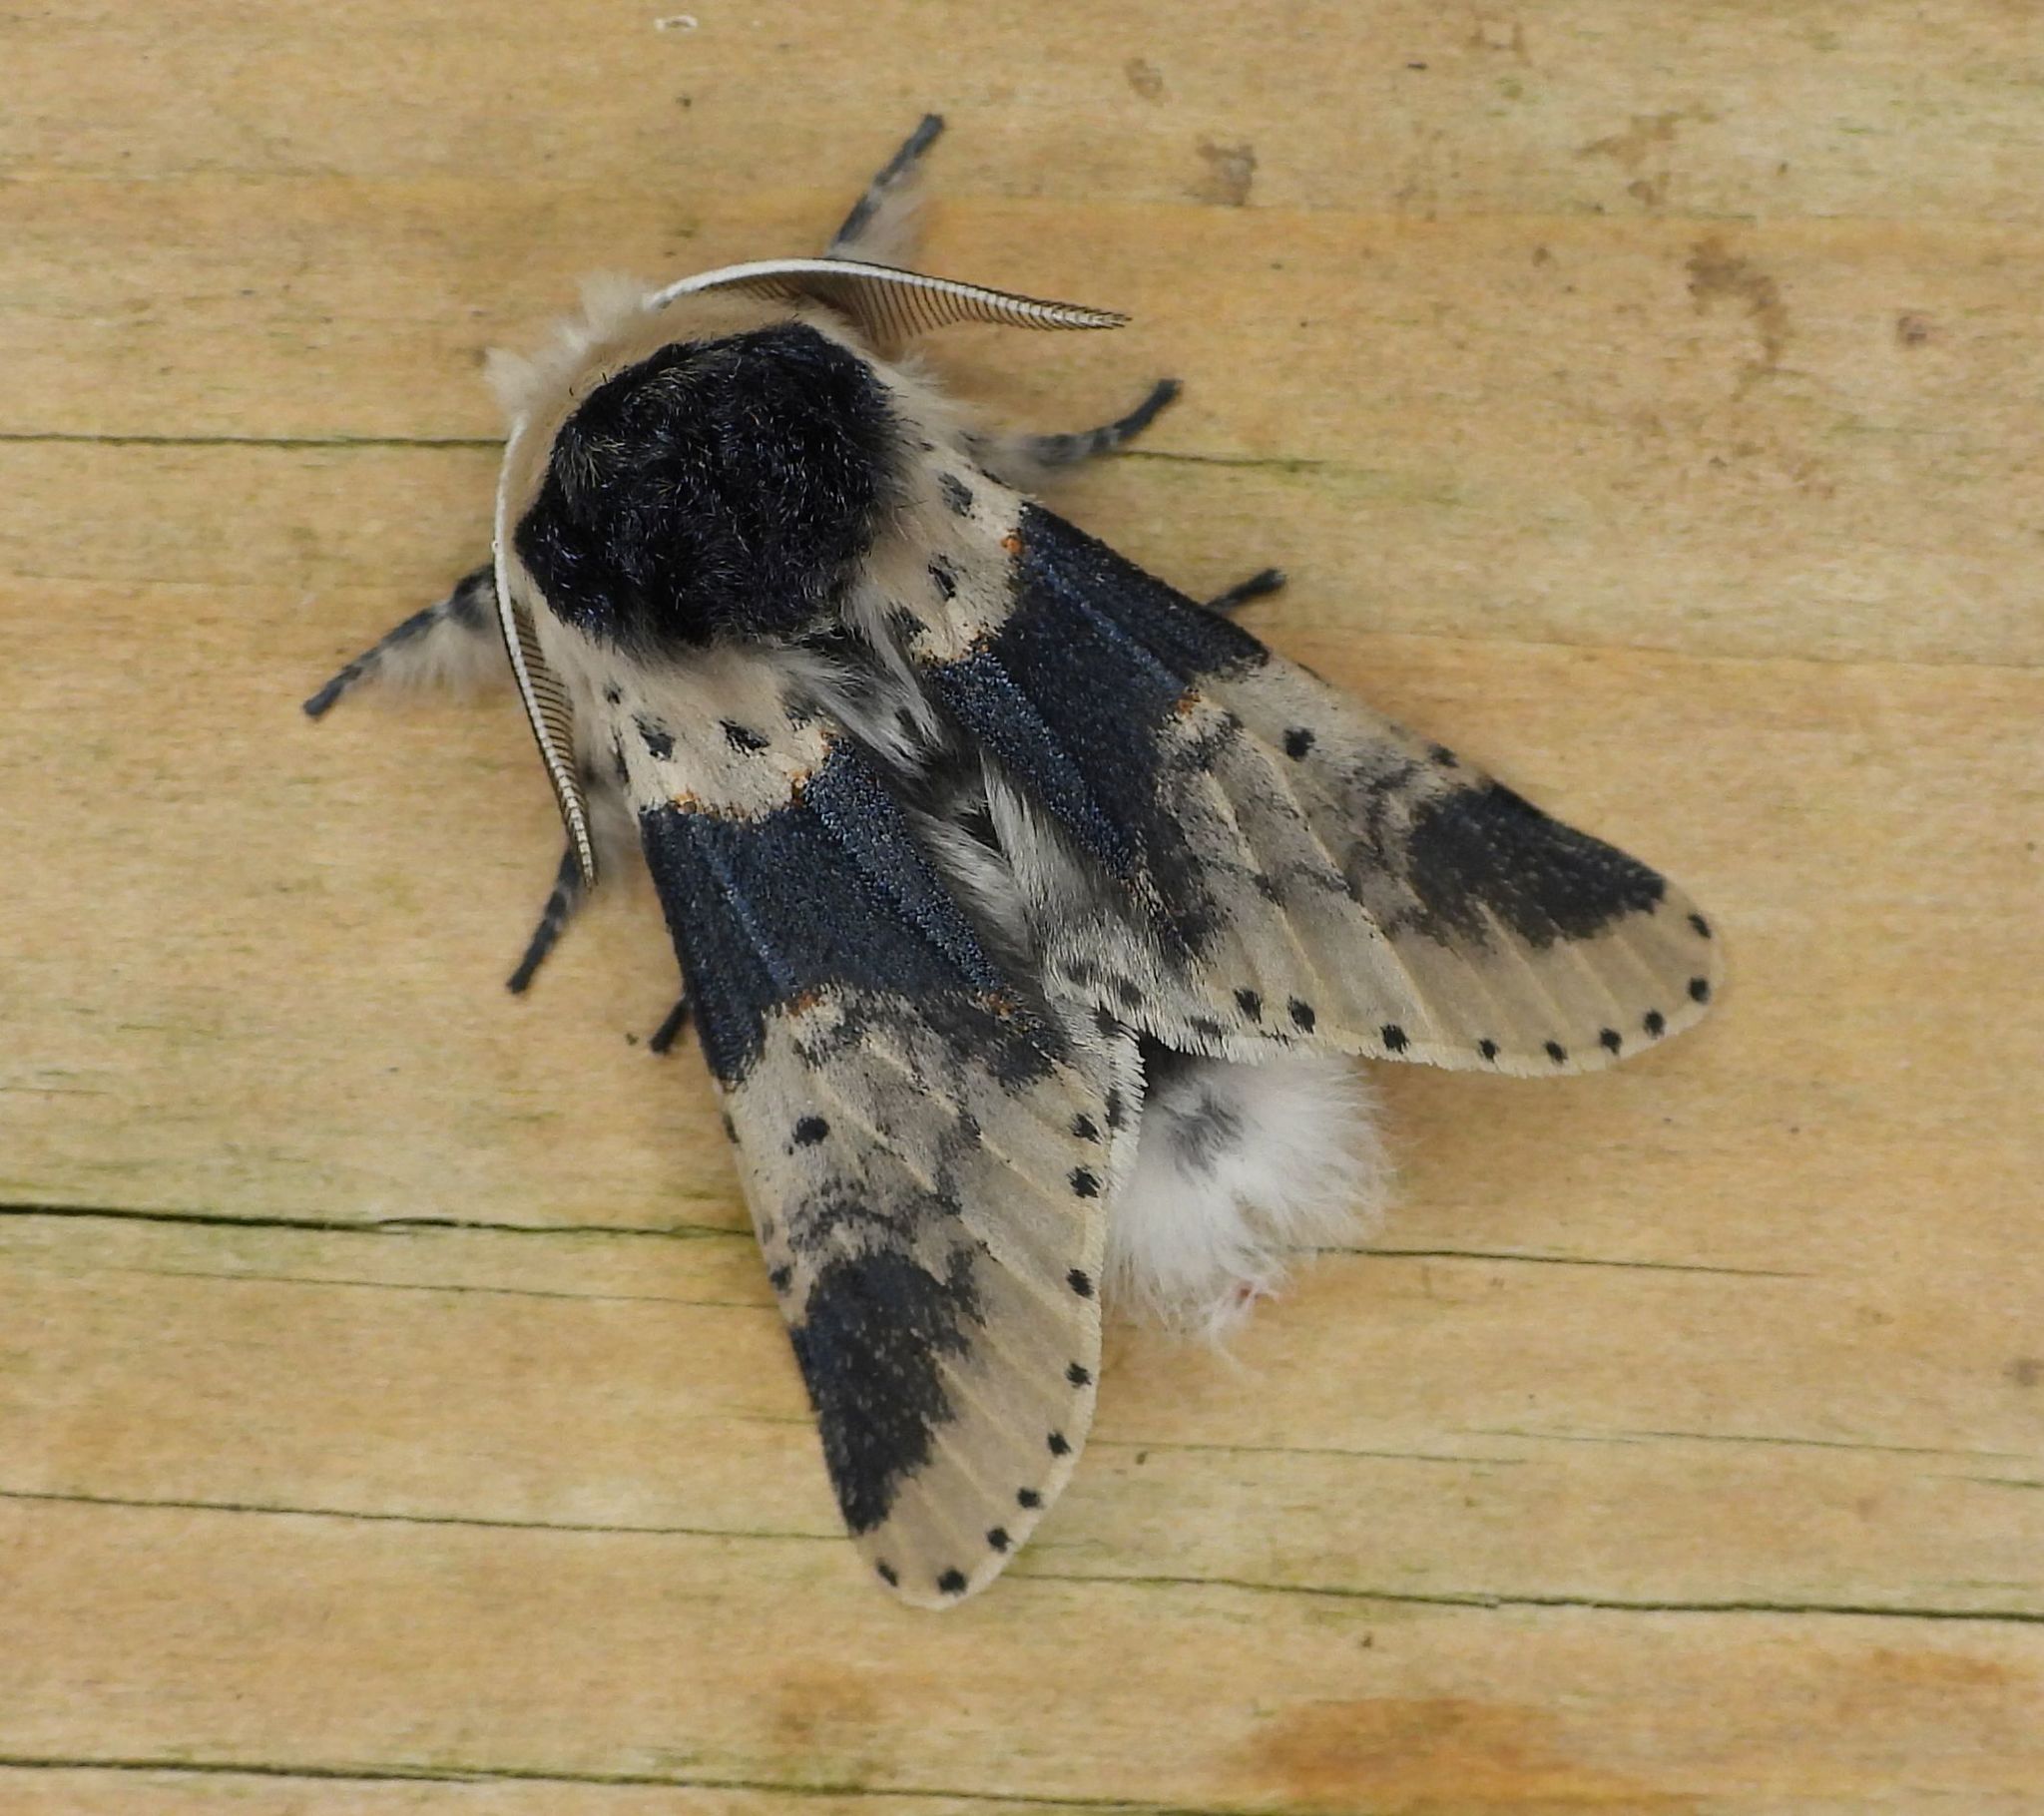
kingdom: Animalia
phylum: Arthropoda
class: Insecta
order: Lepidoptera
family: Notodontidae
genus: Furcula
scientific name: Furcula modesta
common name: Modest furcula moth
